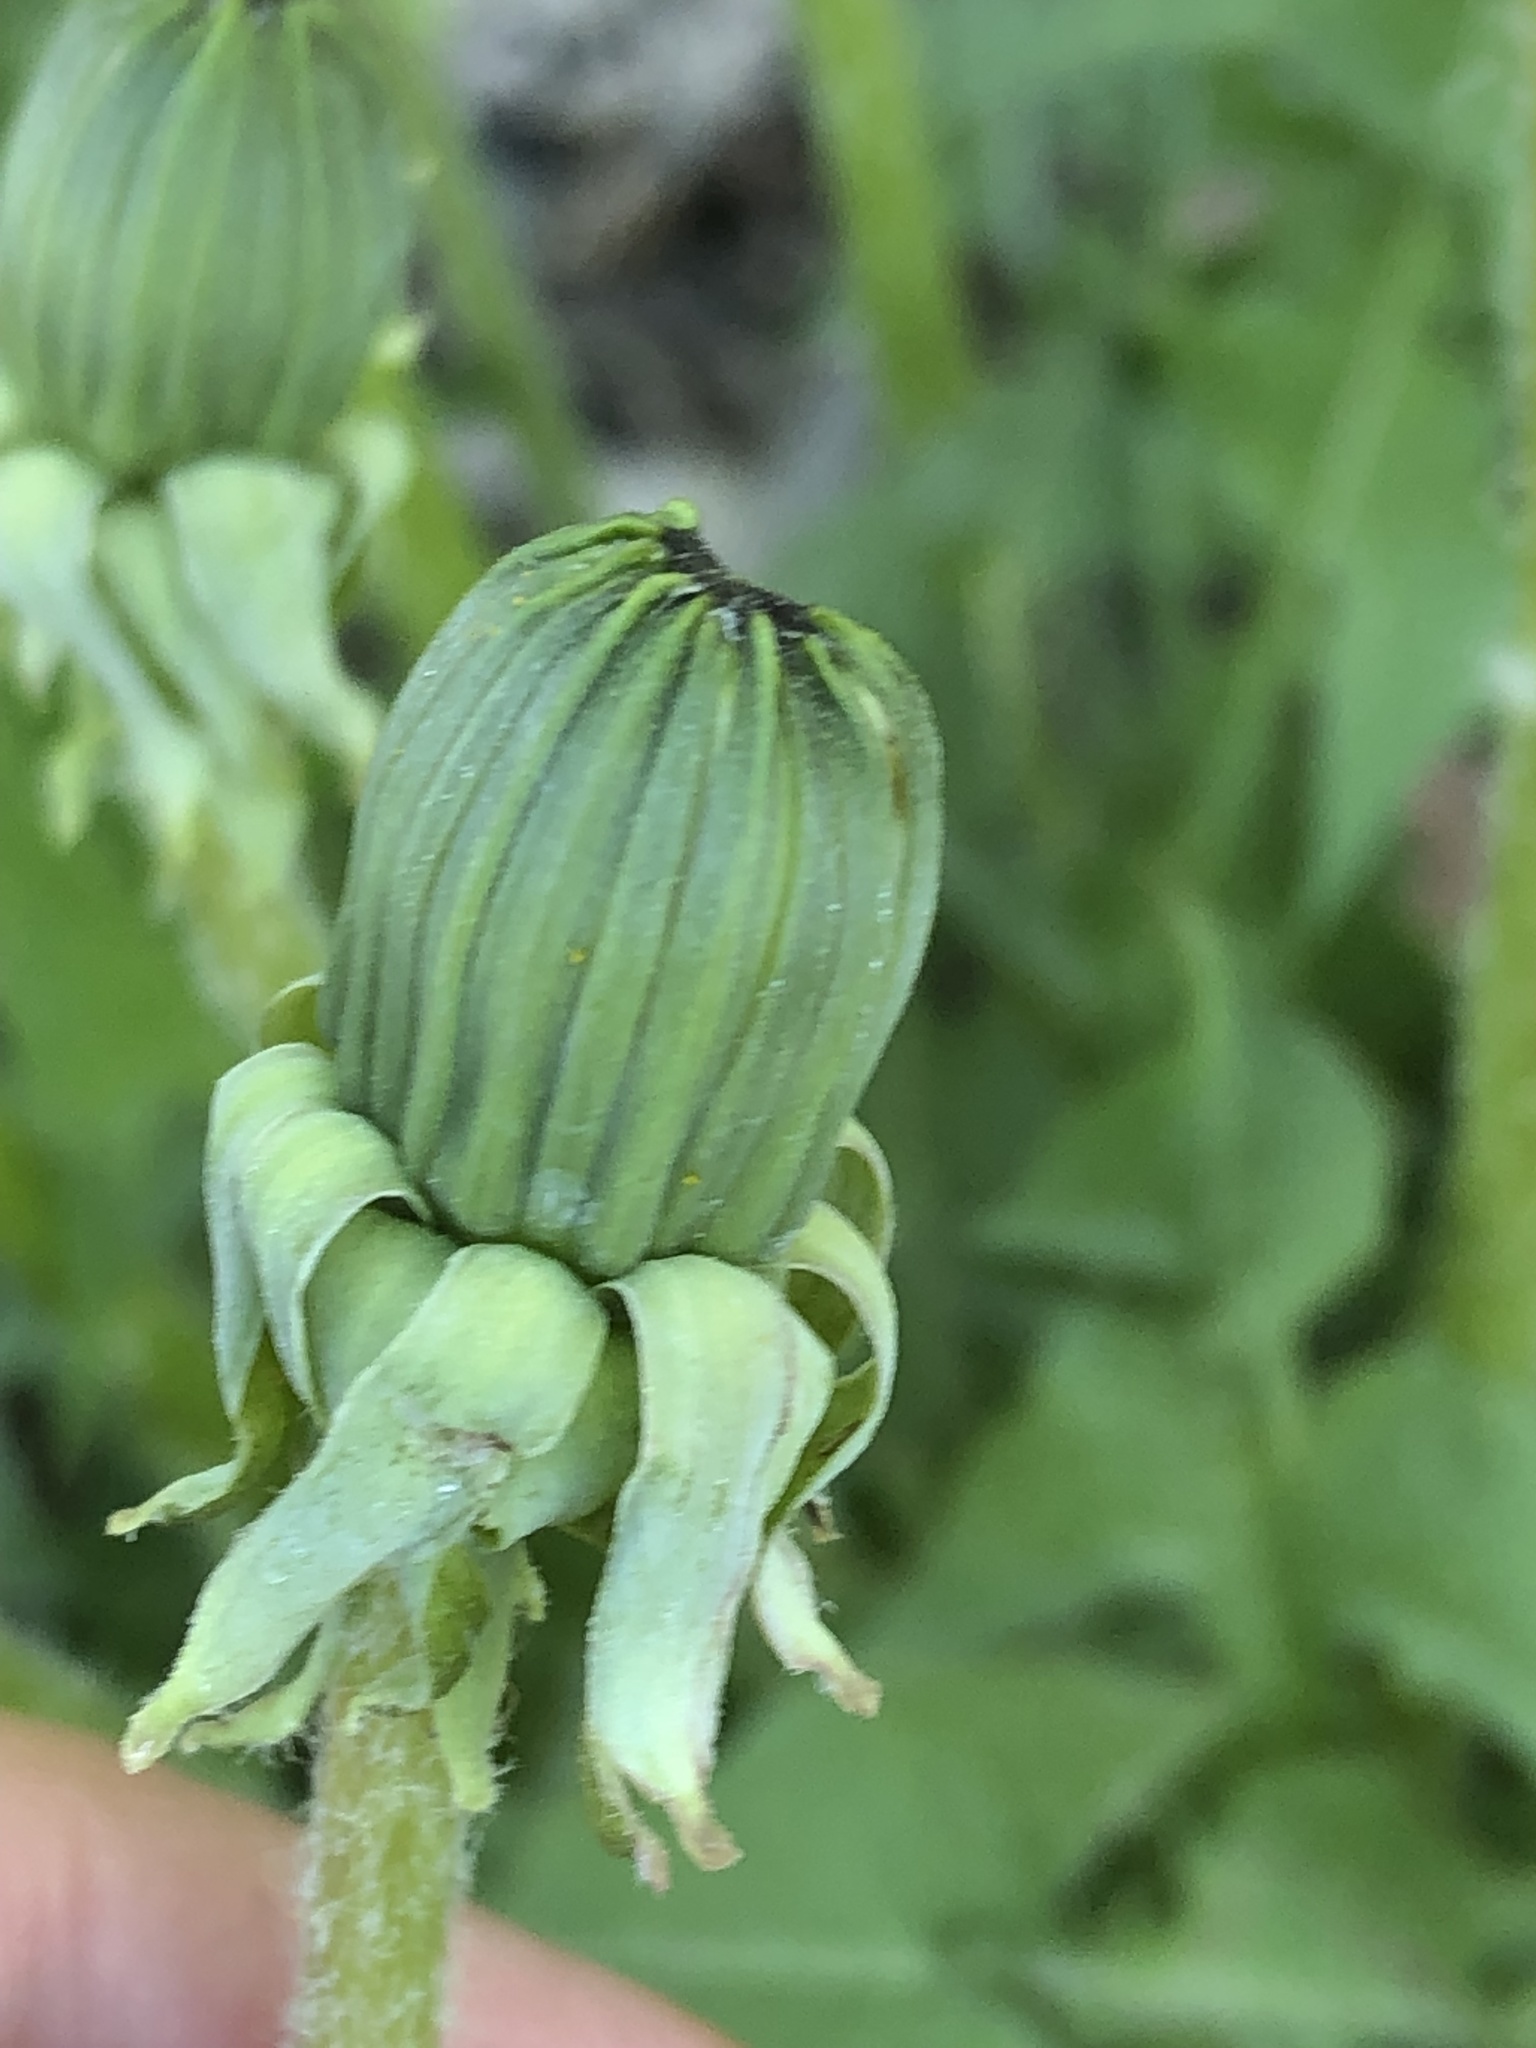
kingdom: Plantae
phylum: Tracheophyta
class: Magnoliopsida
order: Asterales
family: Asteraceae
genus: Taraxacum
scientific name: Taraxacum officinale
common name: Common dandelion
